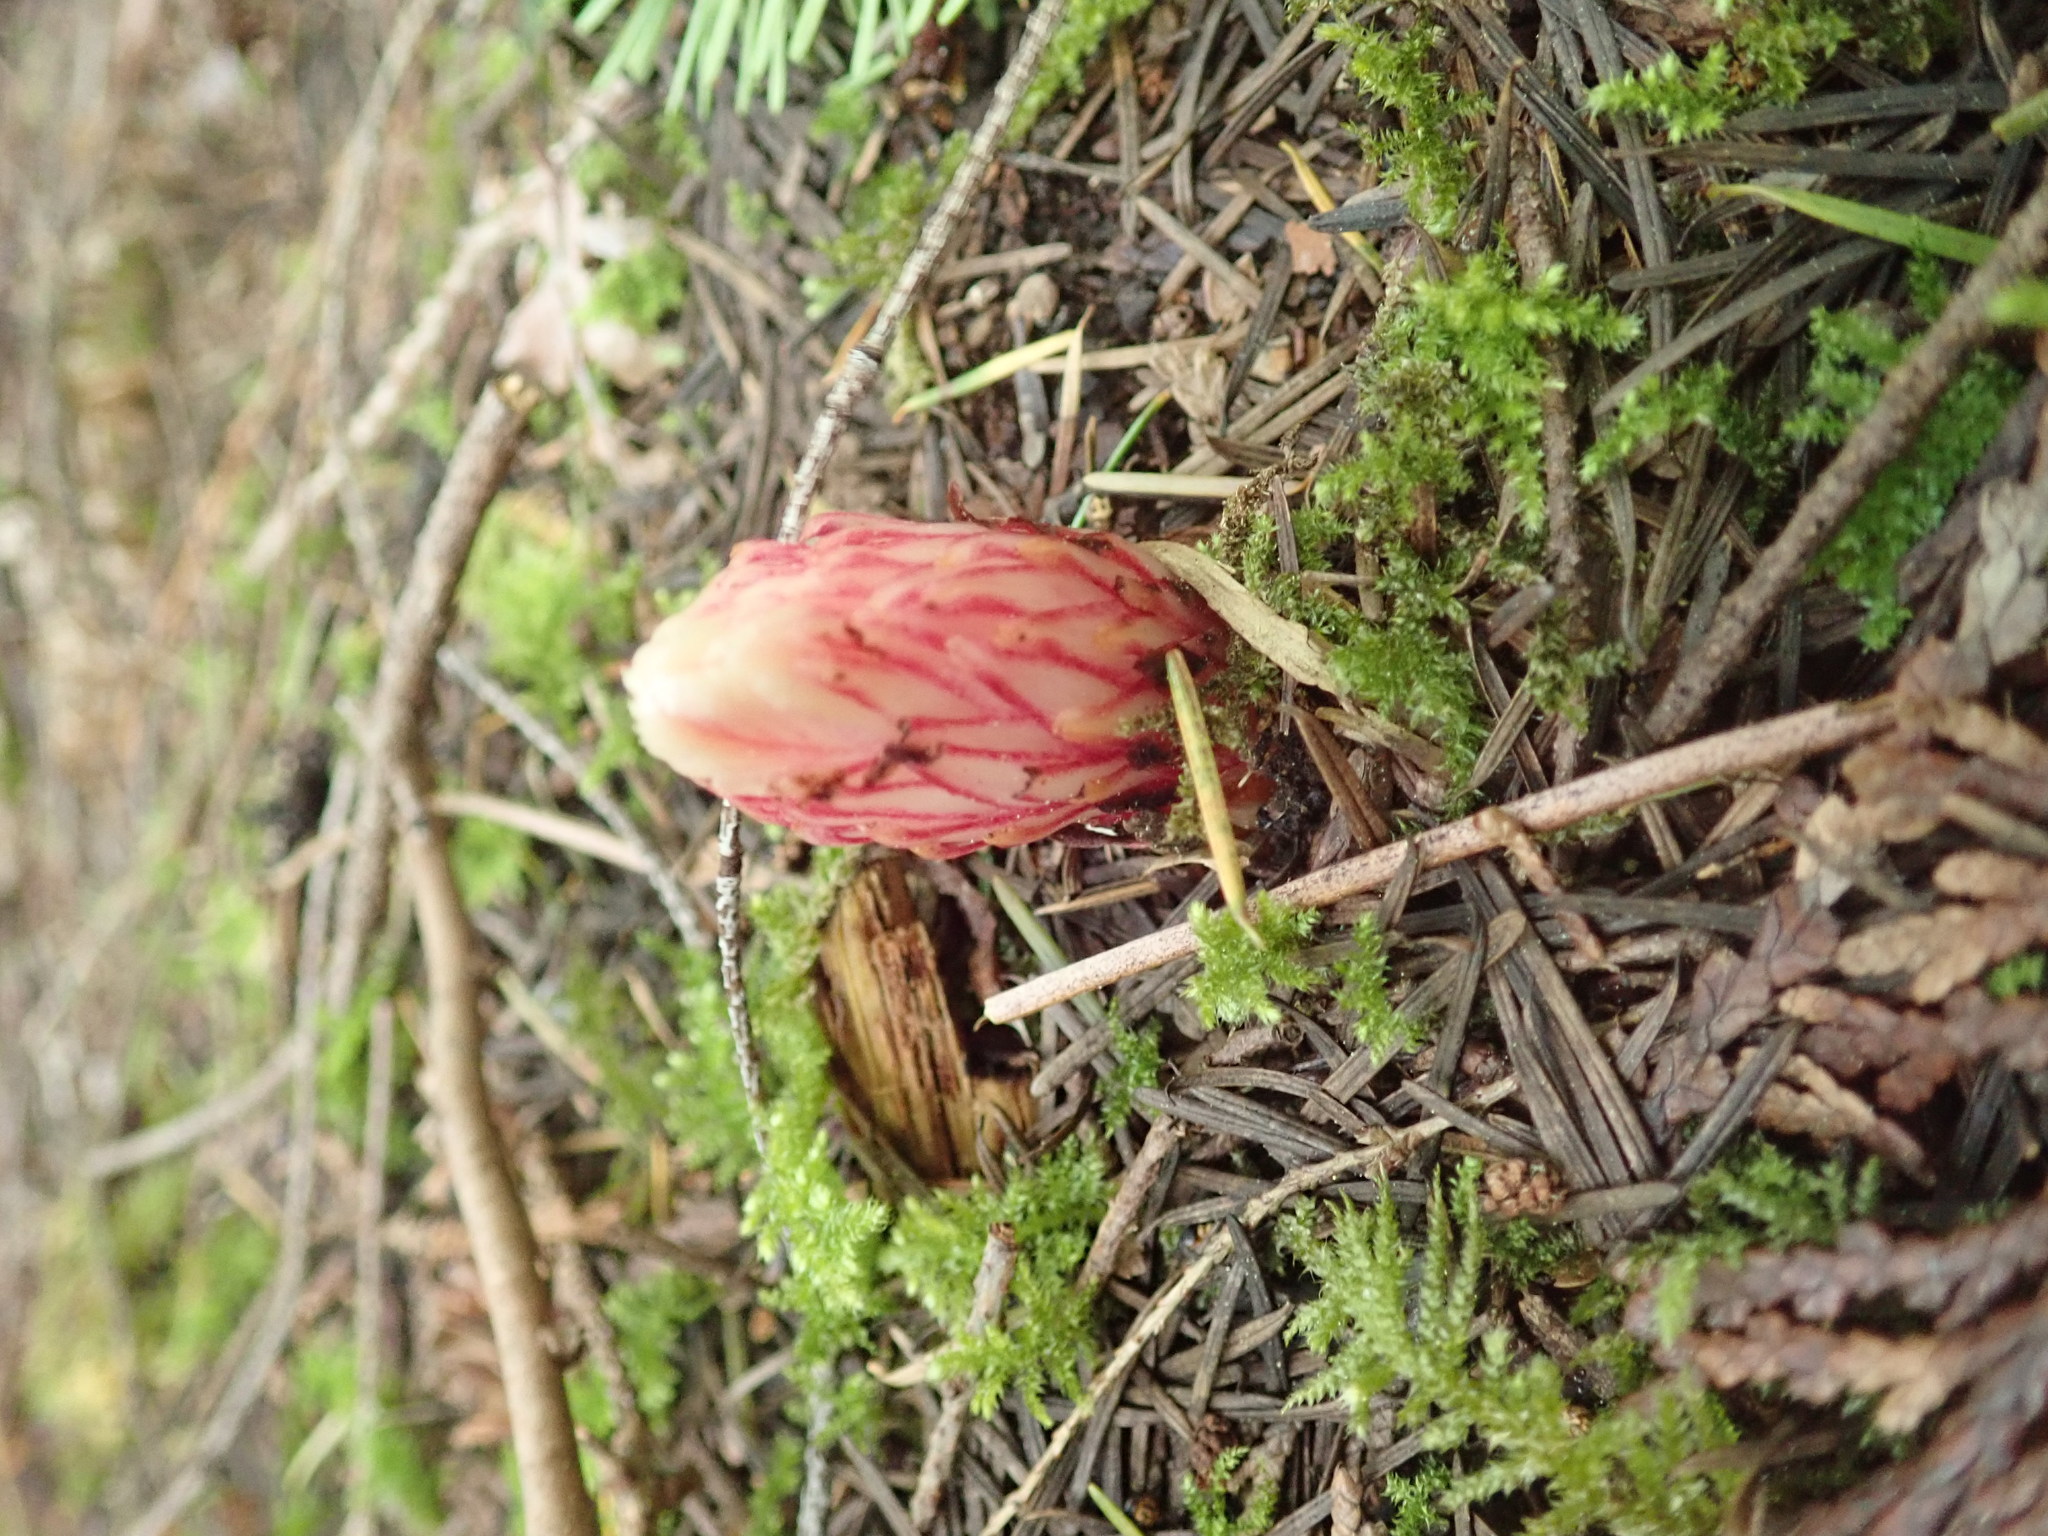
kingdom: Plantae
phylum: Tracheophyta
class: Magnoliopsida
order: Ericales
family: Ericaceae
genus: Allotropa
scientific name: Allotropa virgata
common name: Candy-striped allotropa
